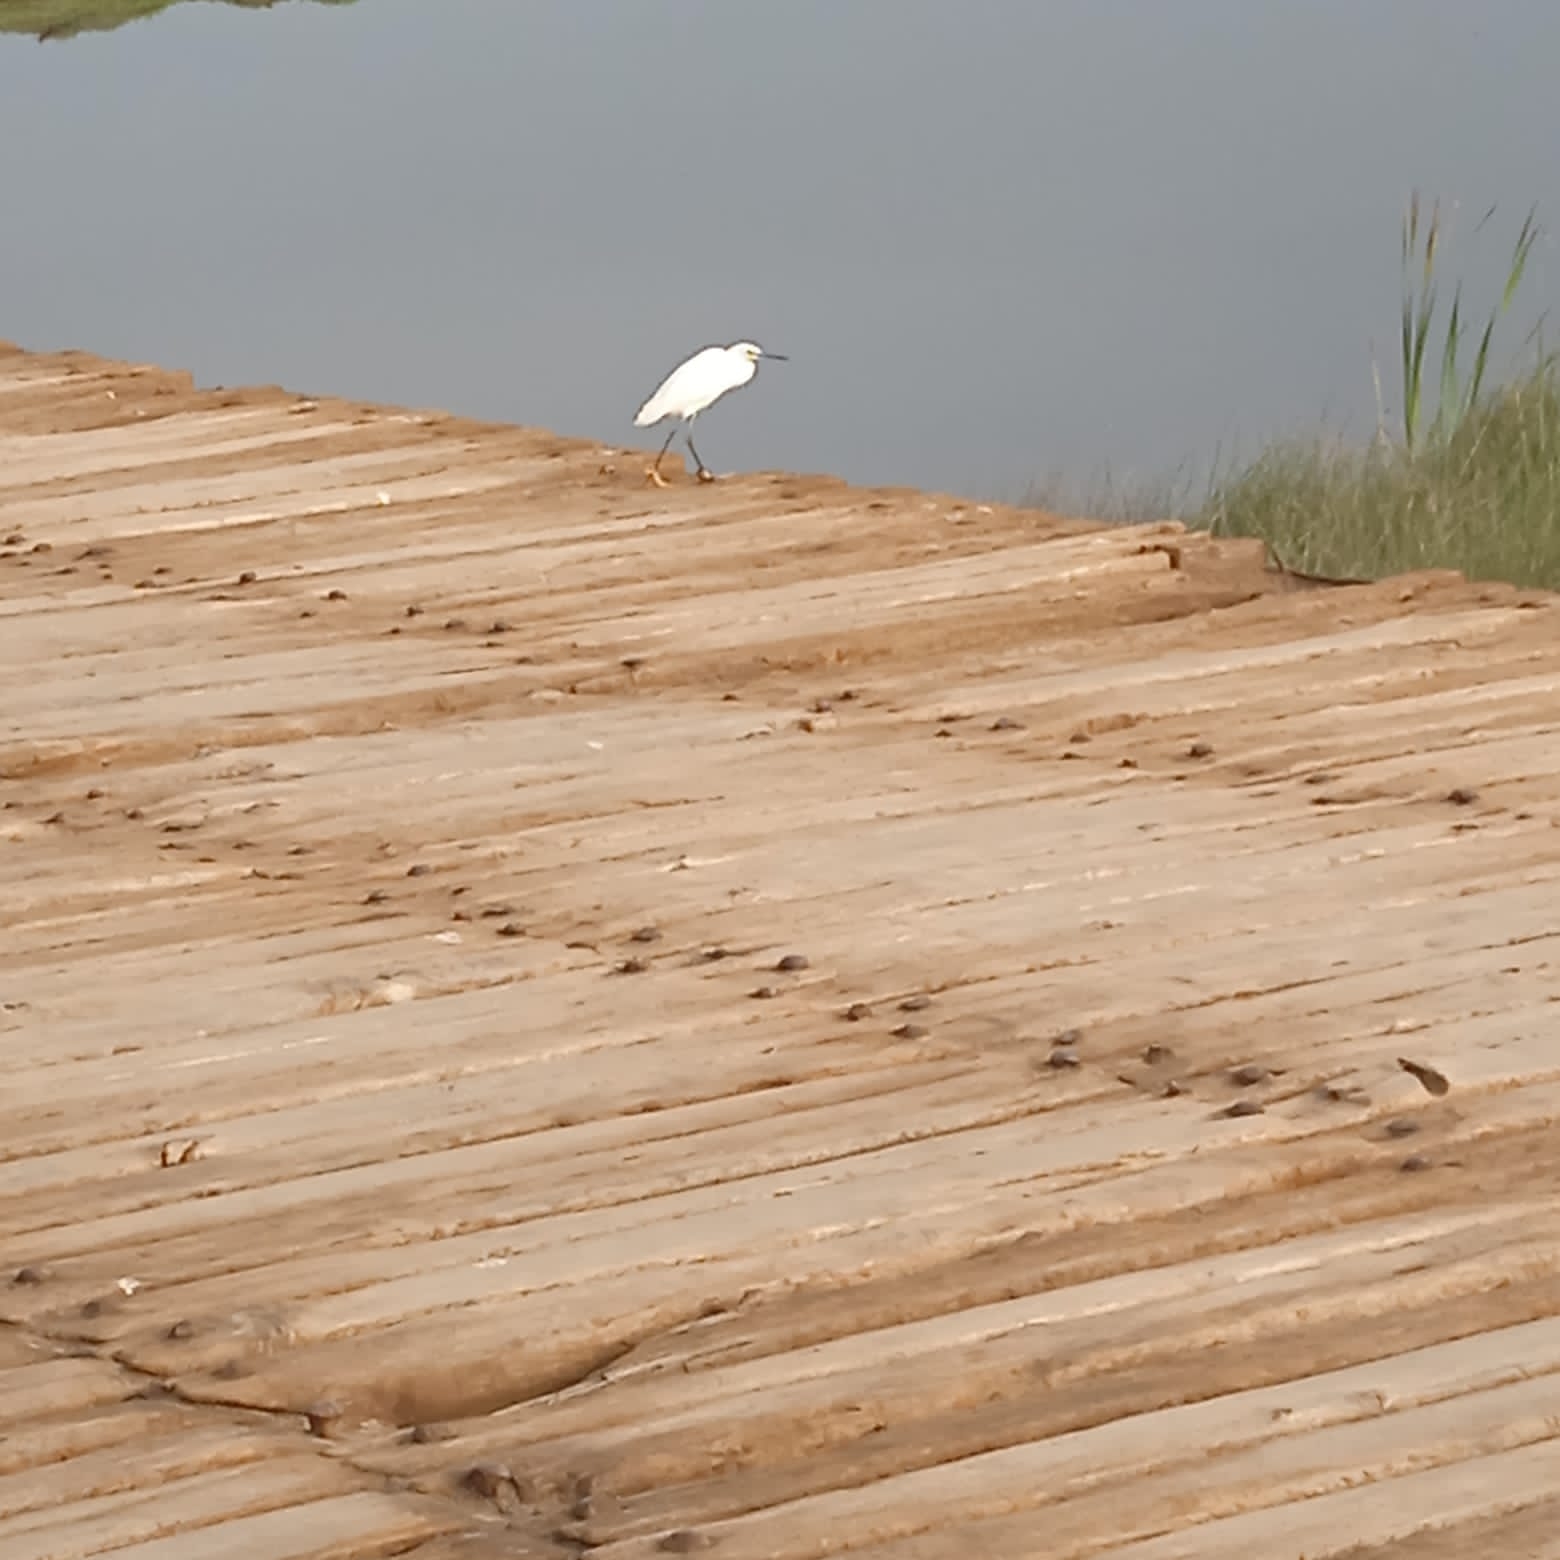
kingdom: Animalia
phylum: Chordata
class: Aves
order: Pelecaniformes
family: Ardeidae
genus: Egretta
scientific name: Egretta thula
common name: Snowy egret
